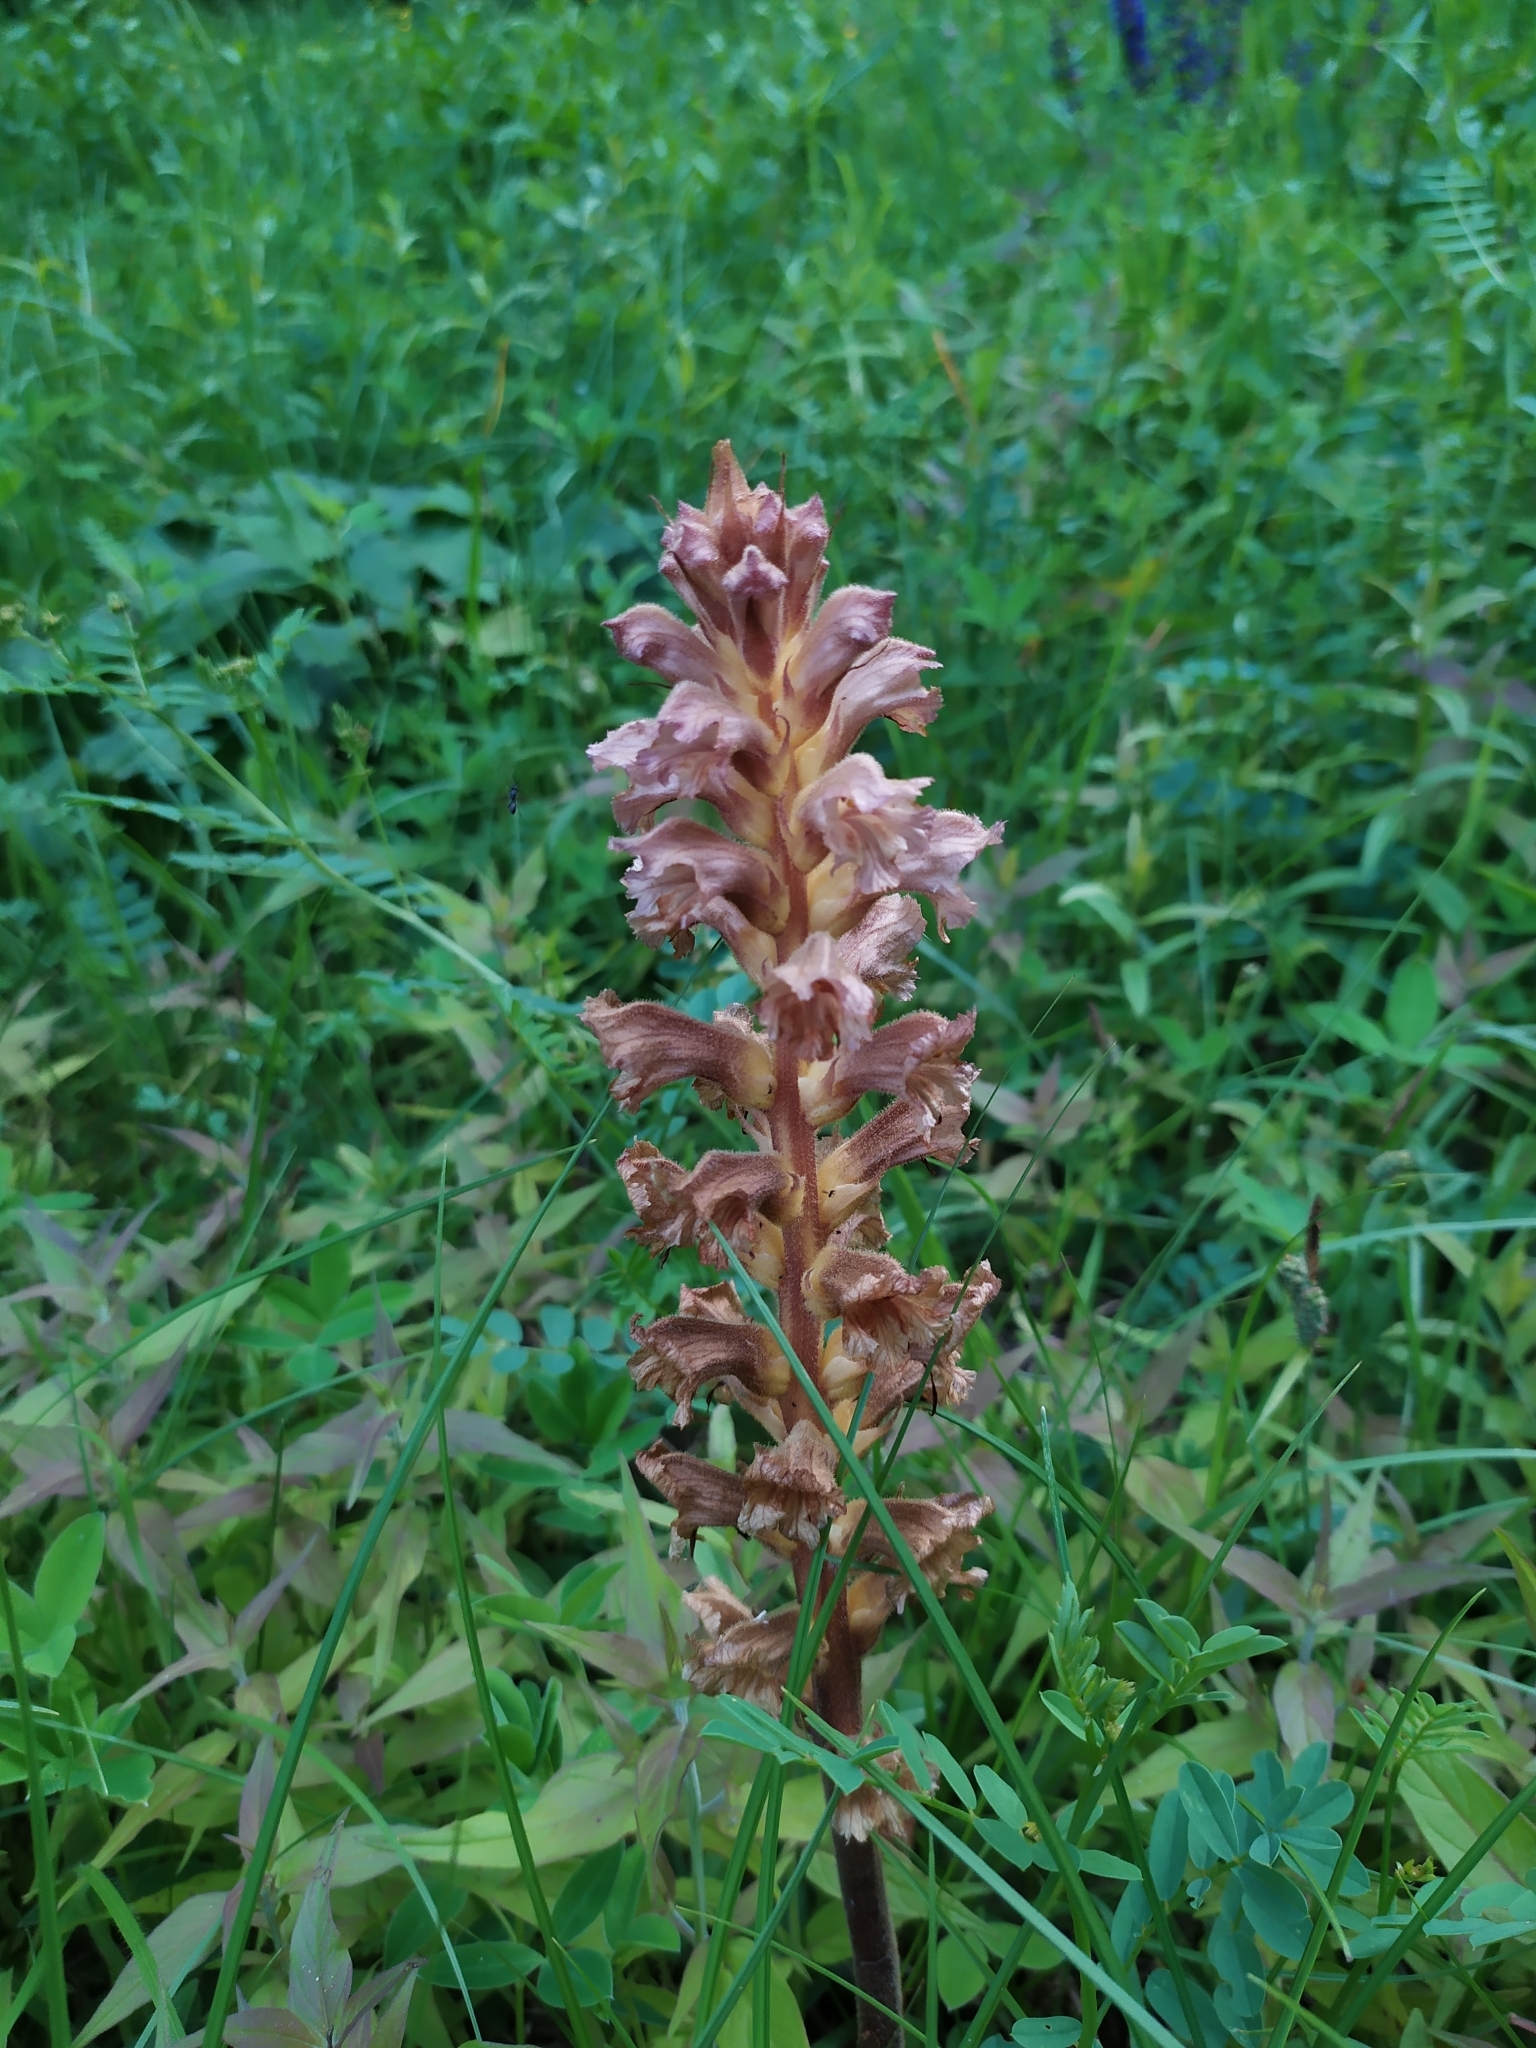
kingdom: Plantae
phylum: Tracheophyta
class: Magnoliopsida
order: Lamiales
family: Orobanchaceae
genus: Orobanche
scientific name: Orobanche lutea
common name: Yellow broomrape
